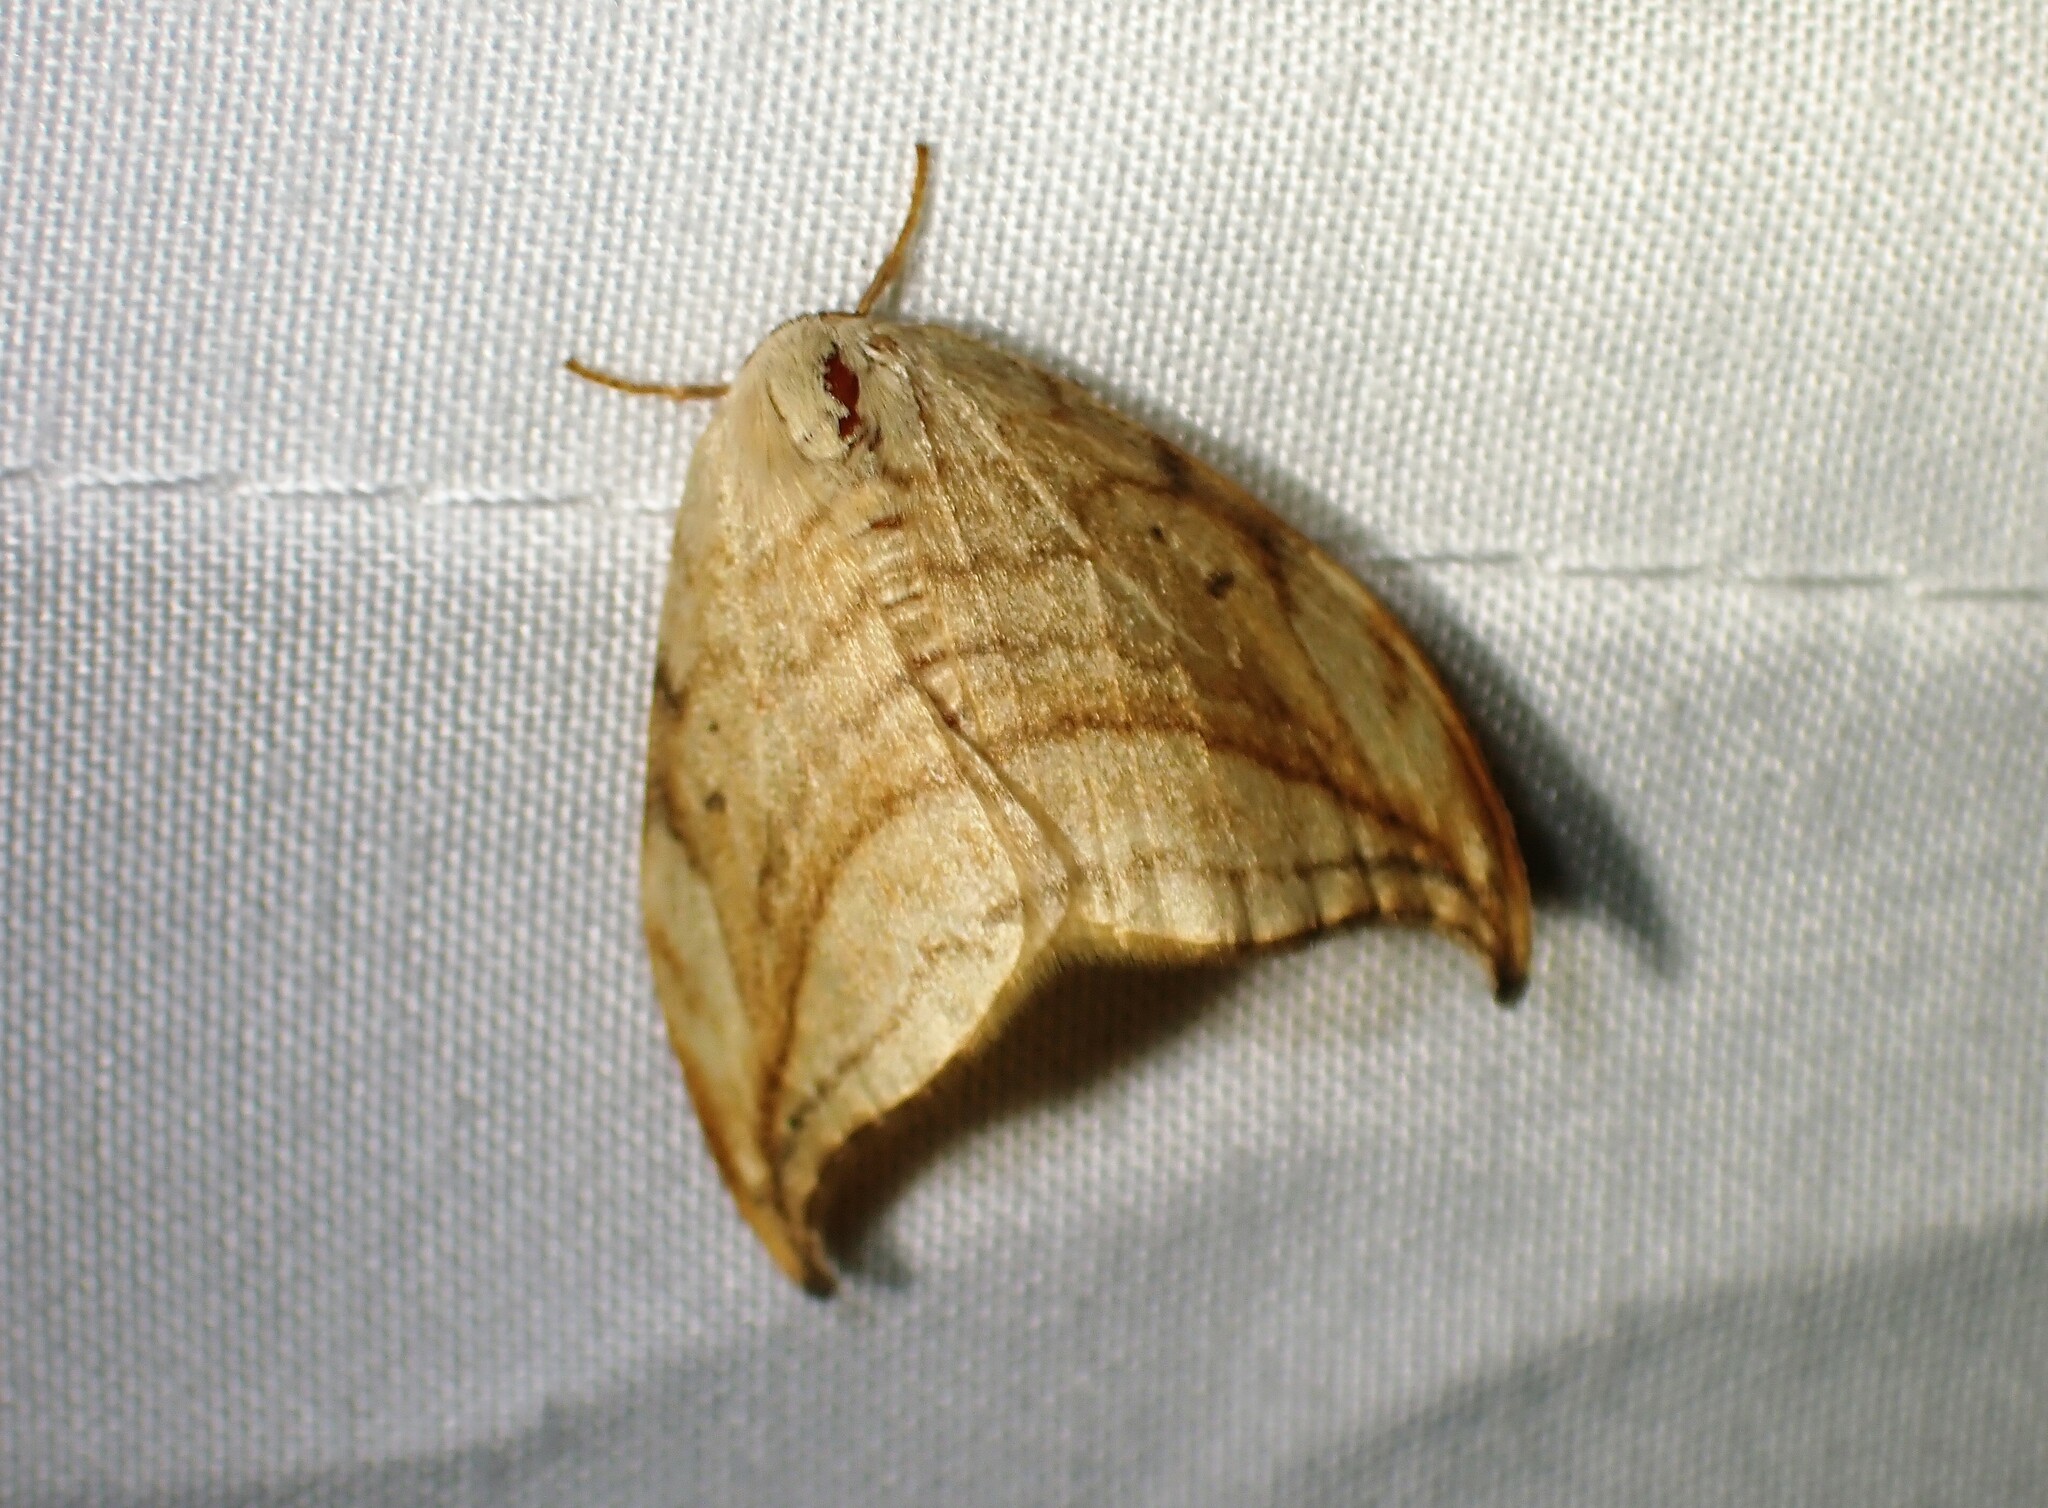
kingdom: Animalia
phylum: Arthropoda
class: Insecta
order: Lepidoptera
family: Drepanidae
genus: Drepana
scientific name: Drepana arcuata
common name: Arched hooktip moth
